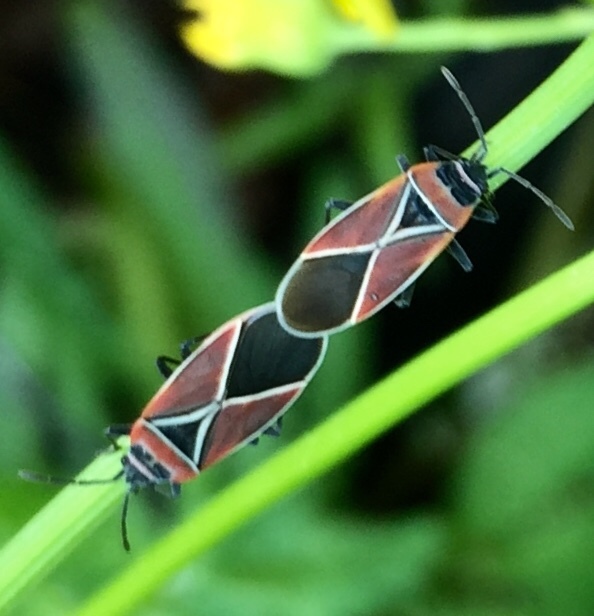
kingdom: Animalia
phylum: Arthropoda
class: Insecta
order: Hemiptera
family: Lygaeidae
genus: Neacoryphus
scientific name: Neacoryphus bicrucis
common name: Lygaeid bug
